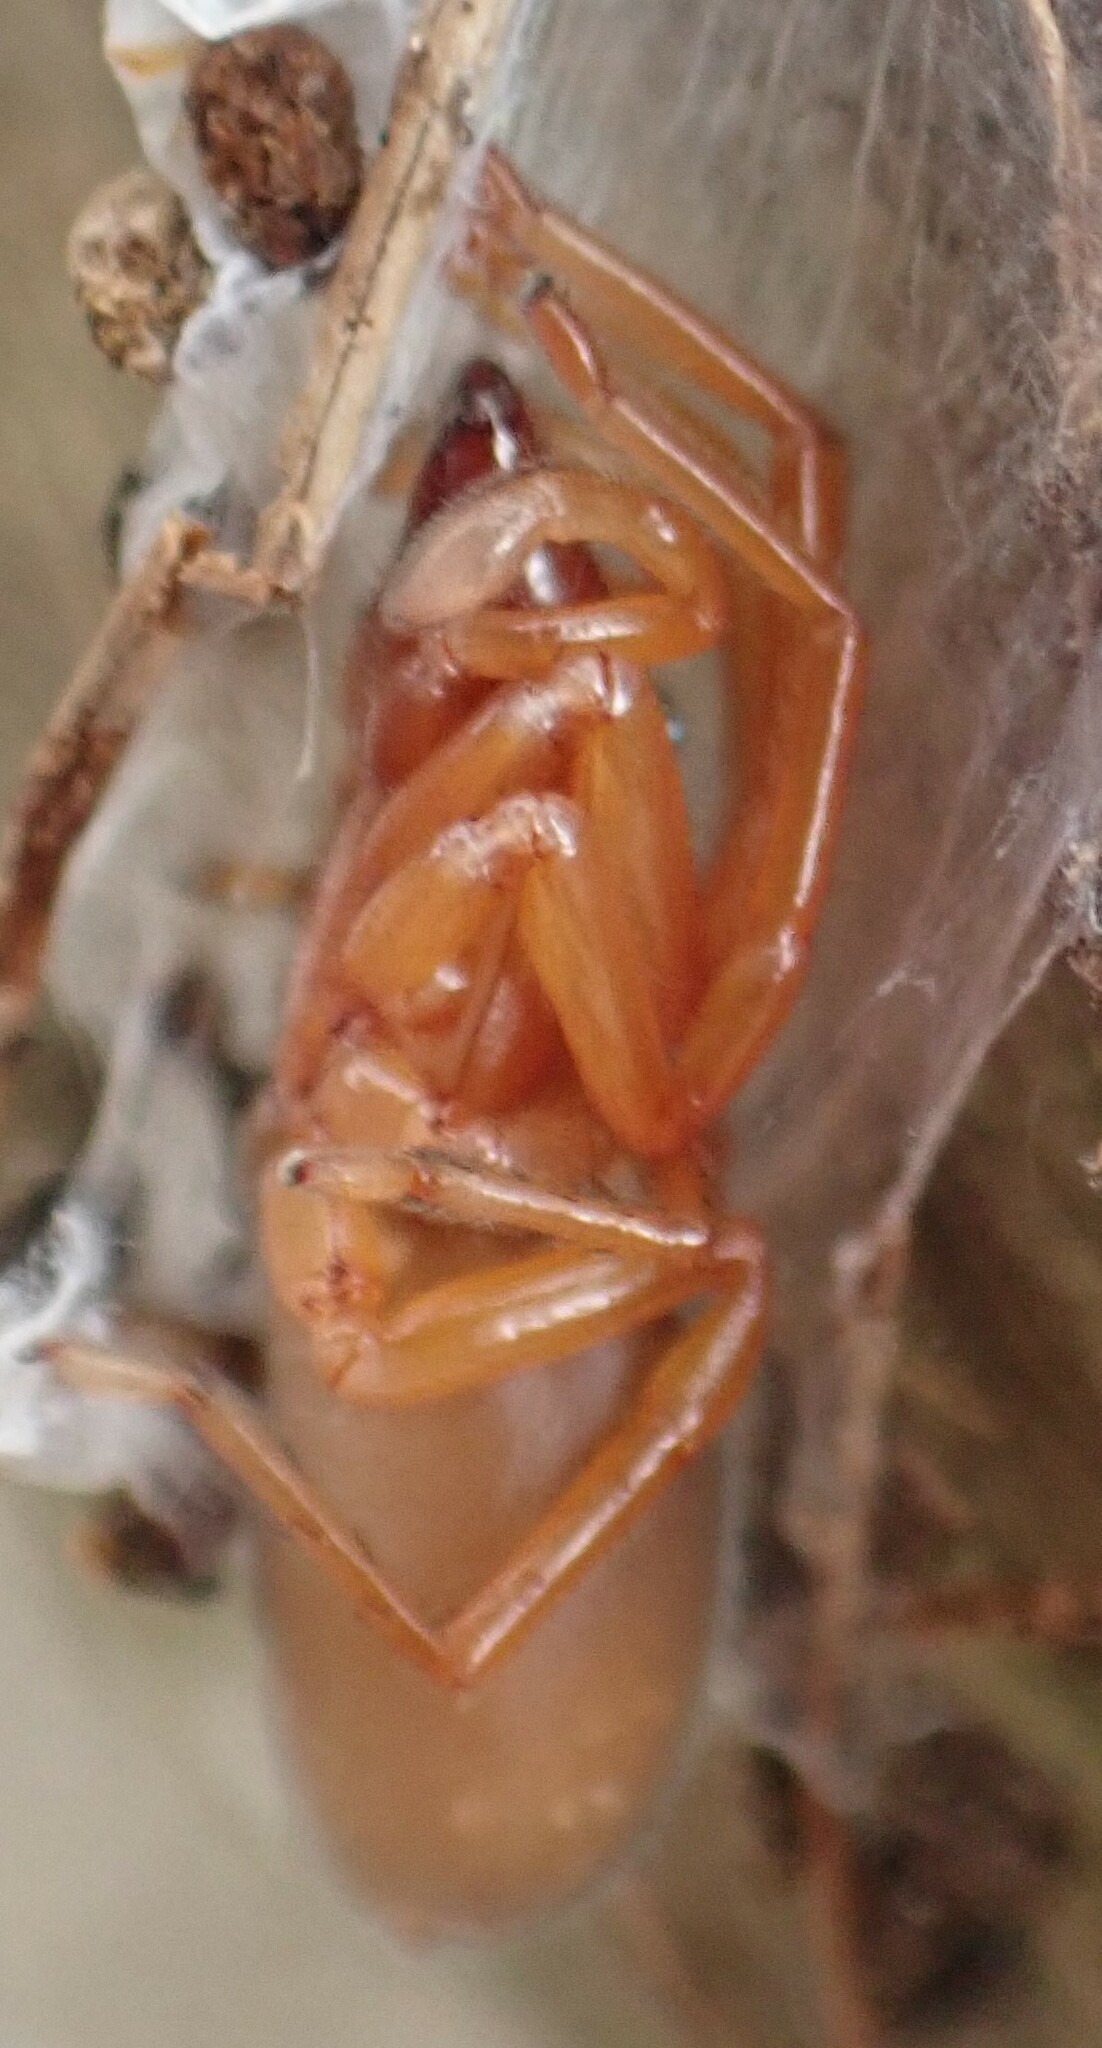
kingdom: Animalia
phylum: Arthropoda
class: Arachnida
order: Araneae
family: Dysderidae
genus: Dysdera
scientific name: Dysdera crocata
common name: Woodlouse spider
